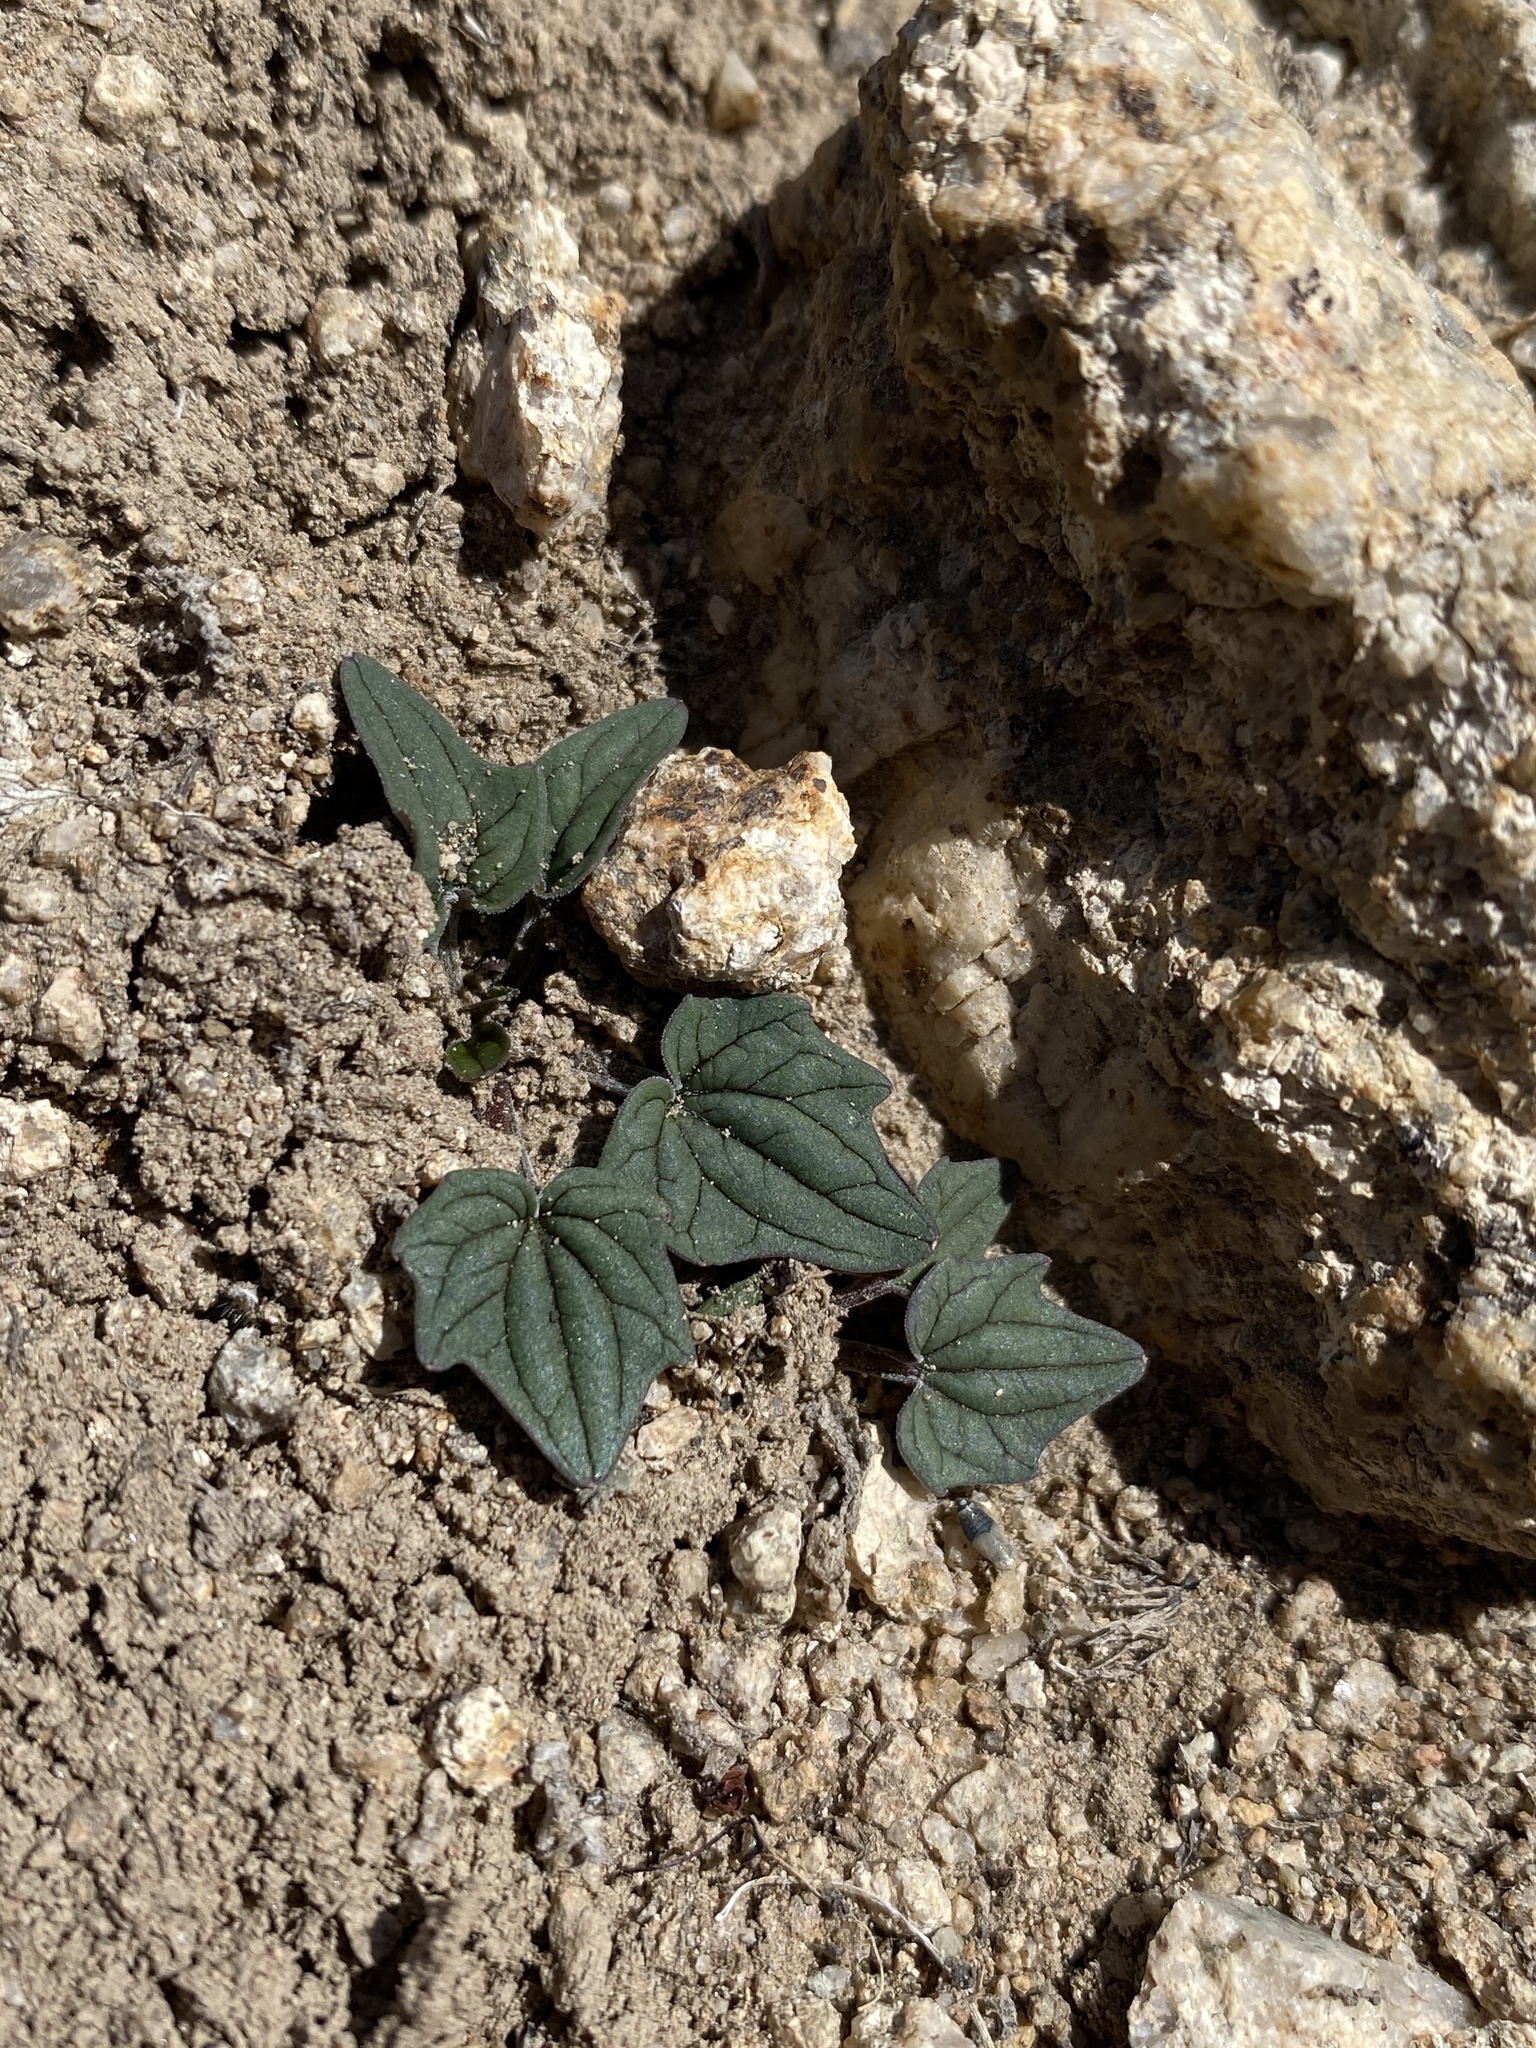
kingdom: Plantae
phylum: Tracheophyta
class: Magnoliopsida
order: Malpighiales
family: Violaceae
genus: Viola
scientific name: Viola purpurea
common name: Pine violet
